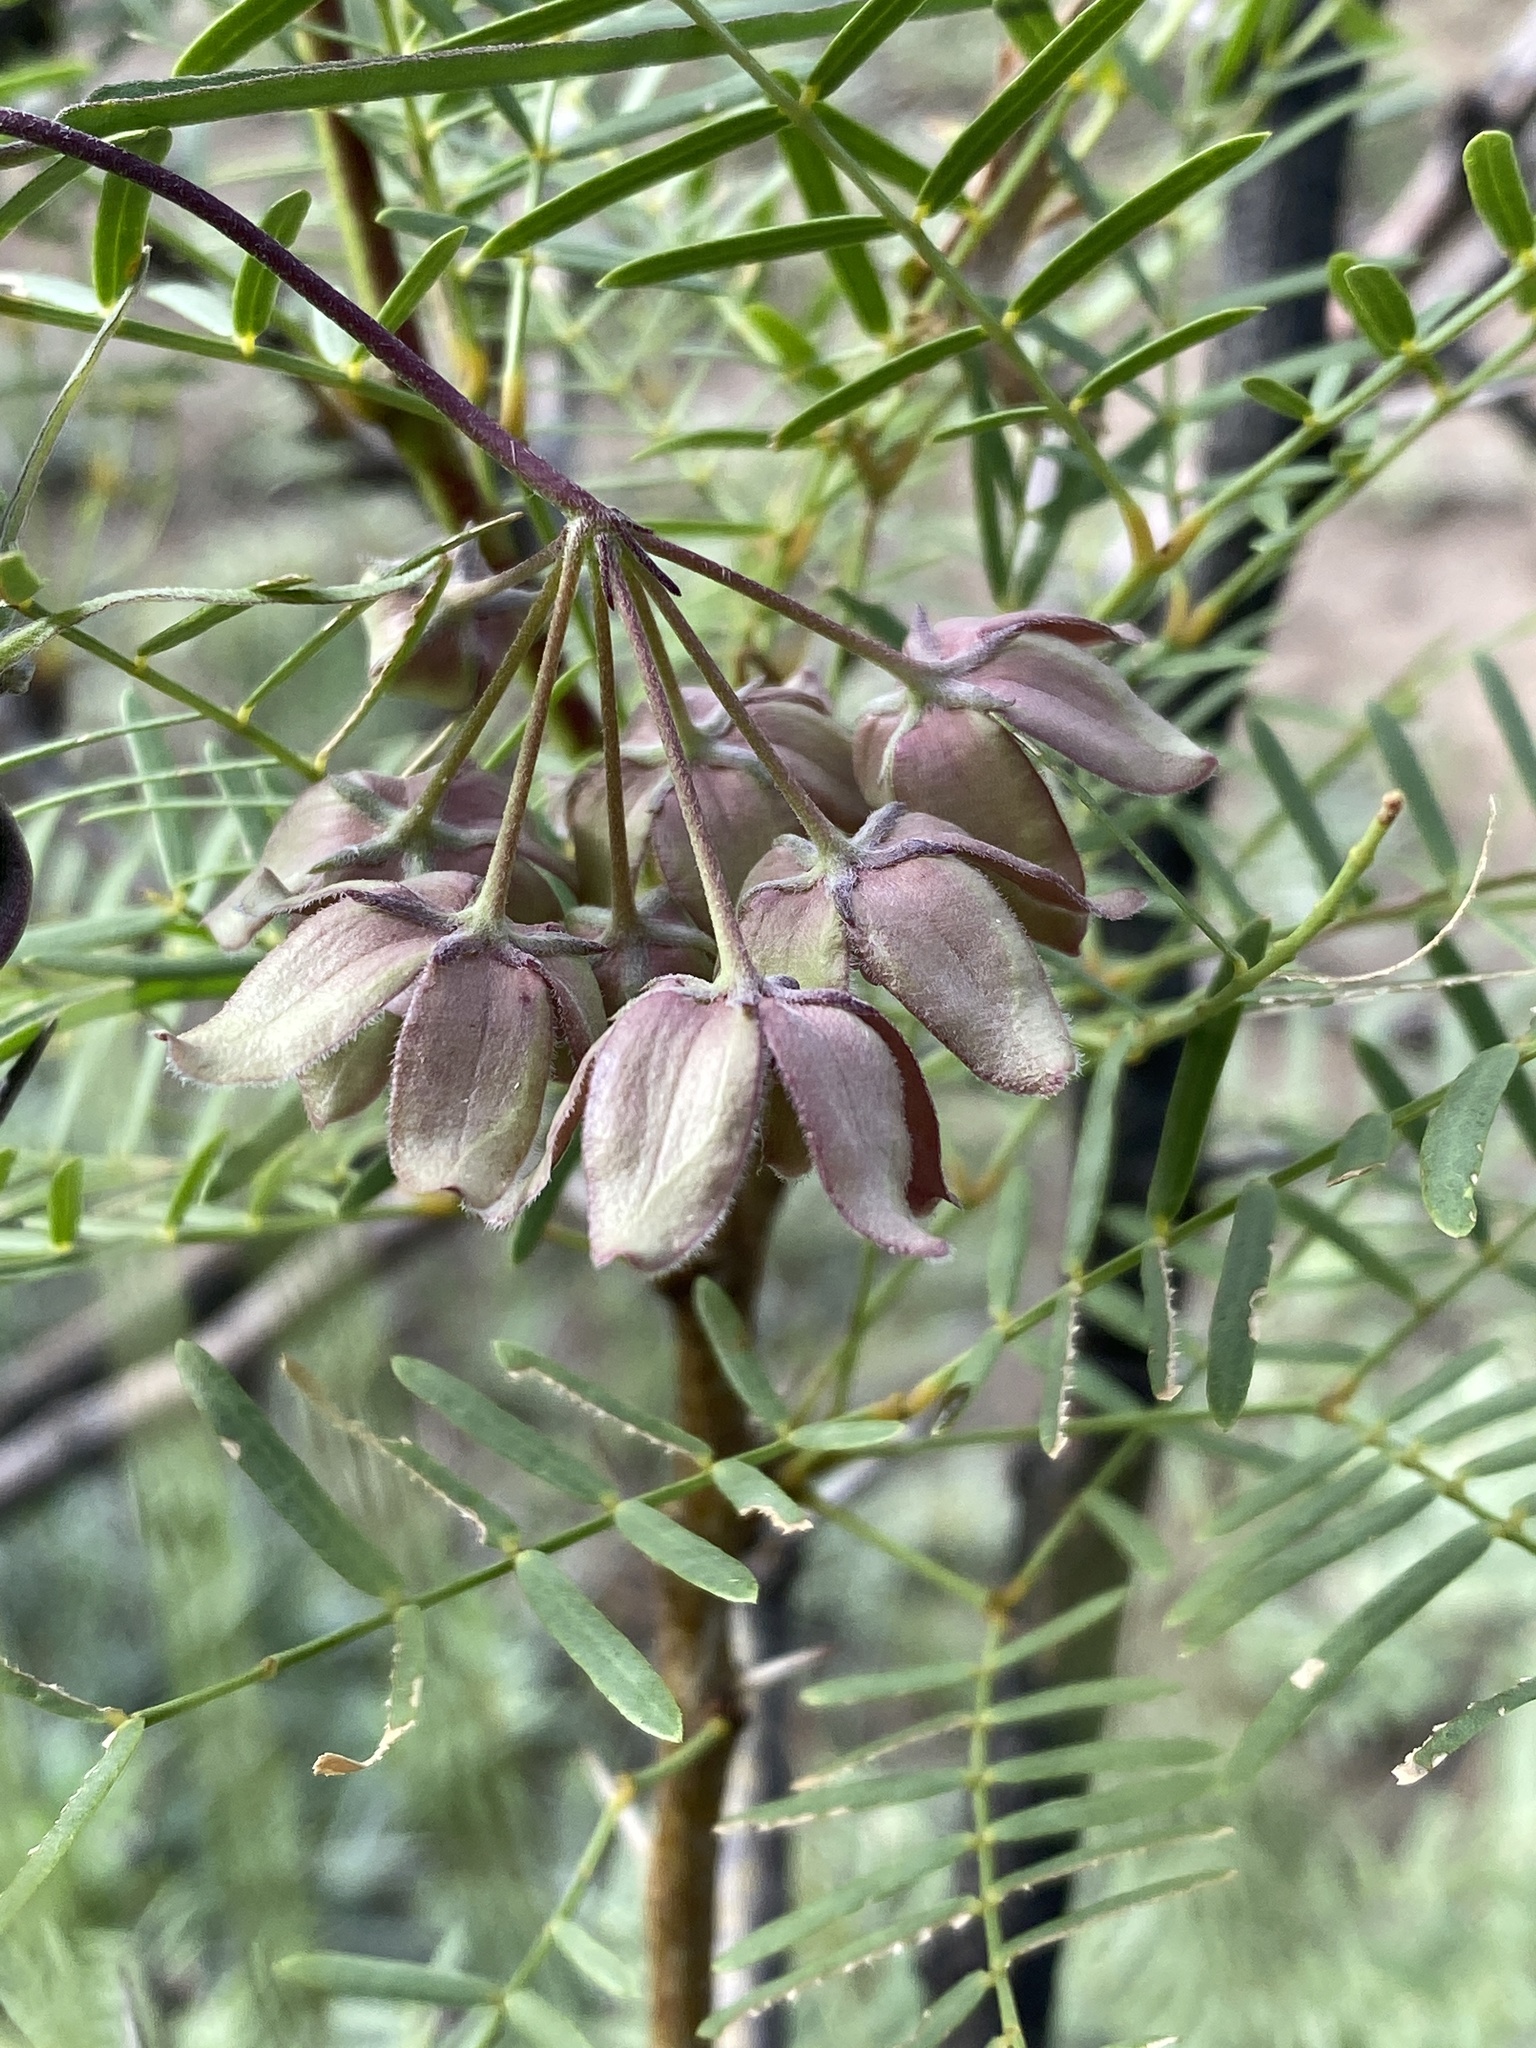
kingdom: Plantae
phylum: Tracheophyta
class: Magnoliopsida
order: Gentianales
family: Apocynaceae
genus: Funastrum
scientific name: Funastrum crispum
